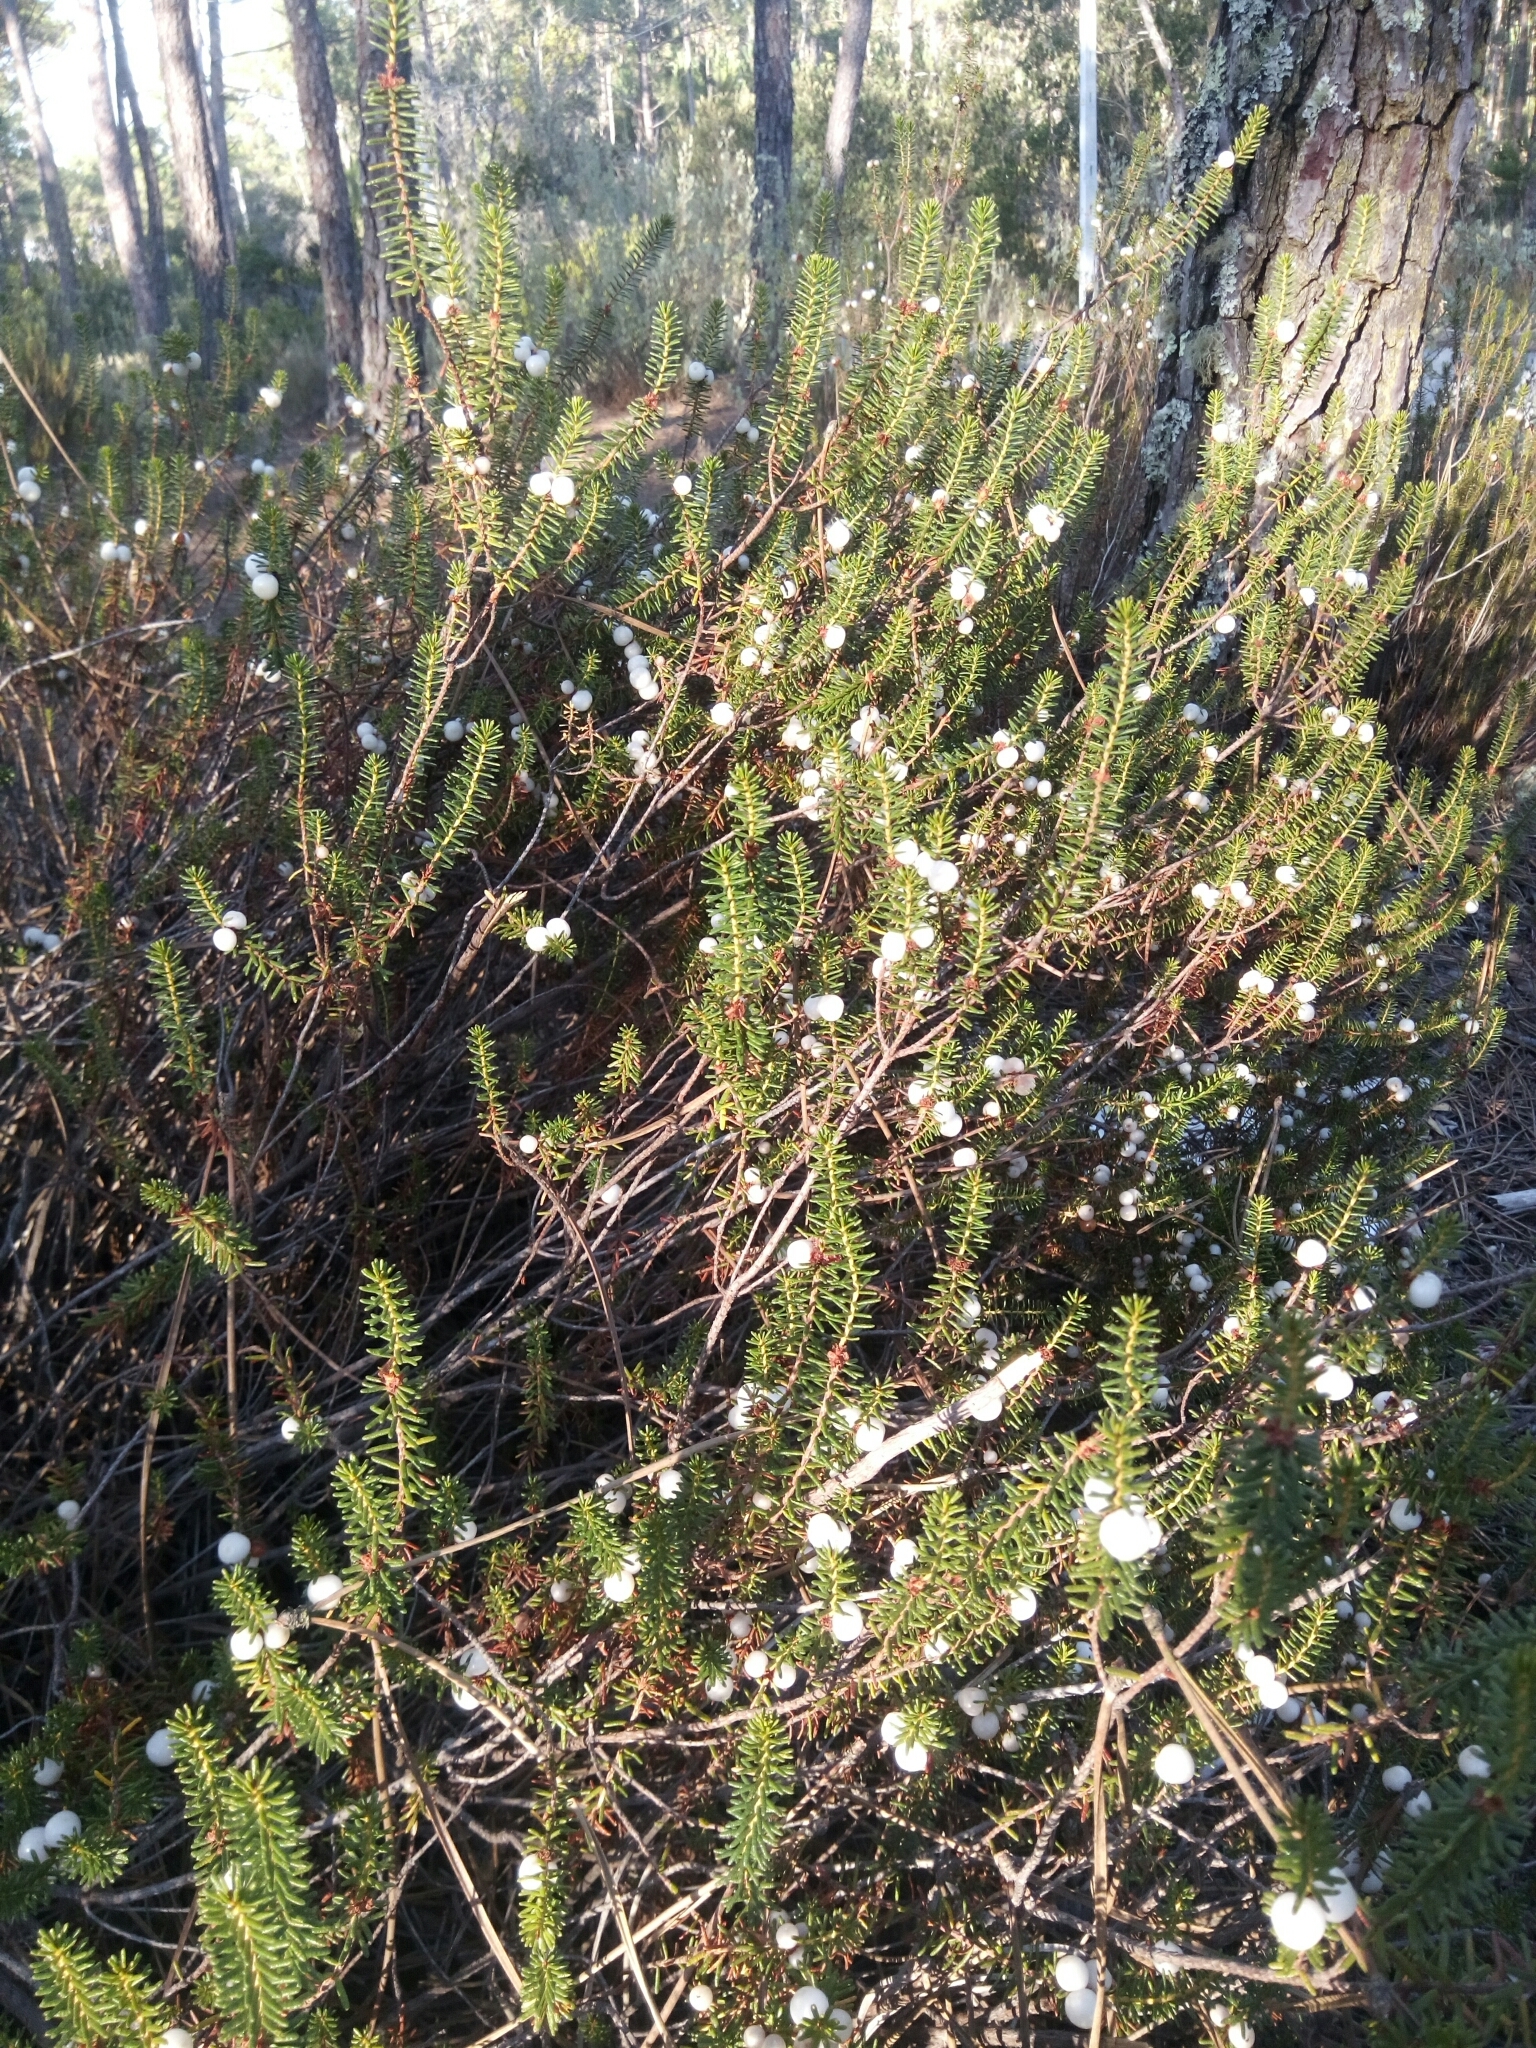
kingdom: Plantae
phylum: Tracheophyta
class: Magnoliopsida
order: Ericales
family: Ericaceae
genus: Corema
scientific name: Corema album
